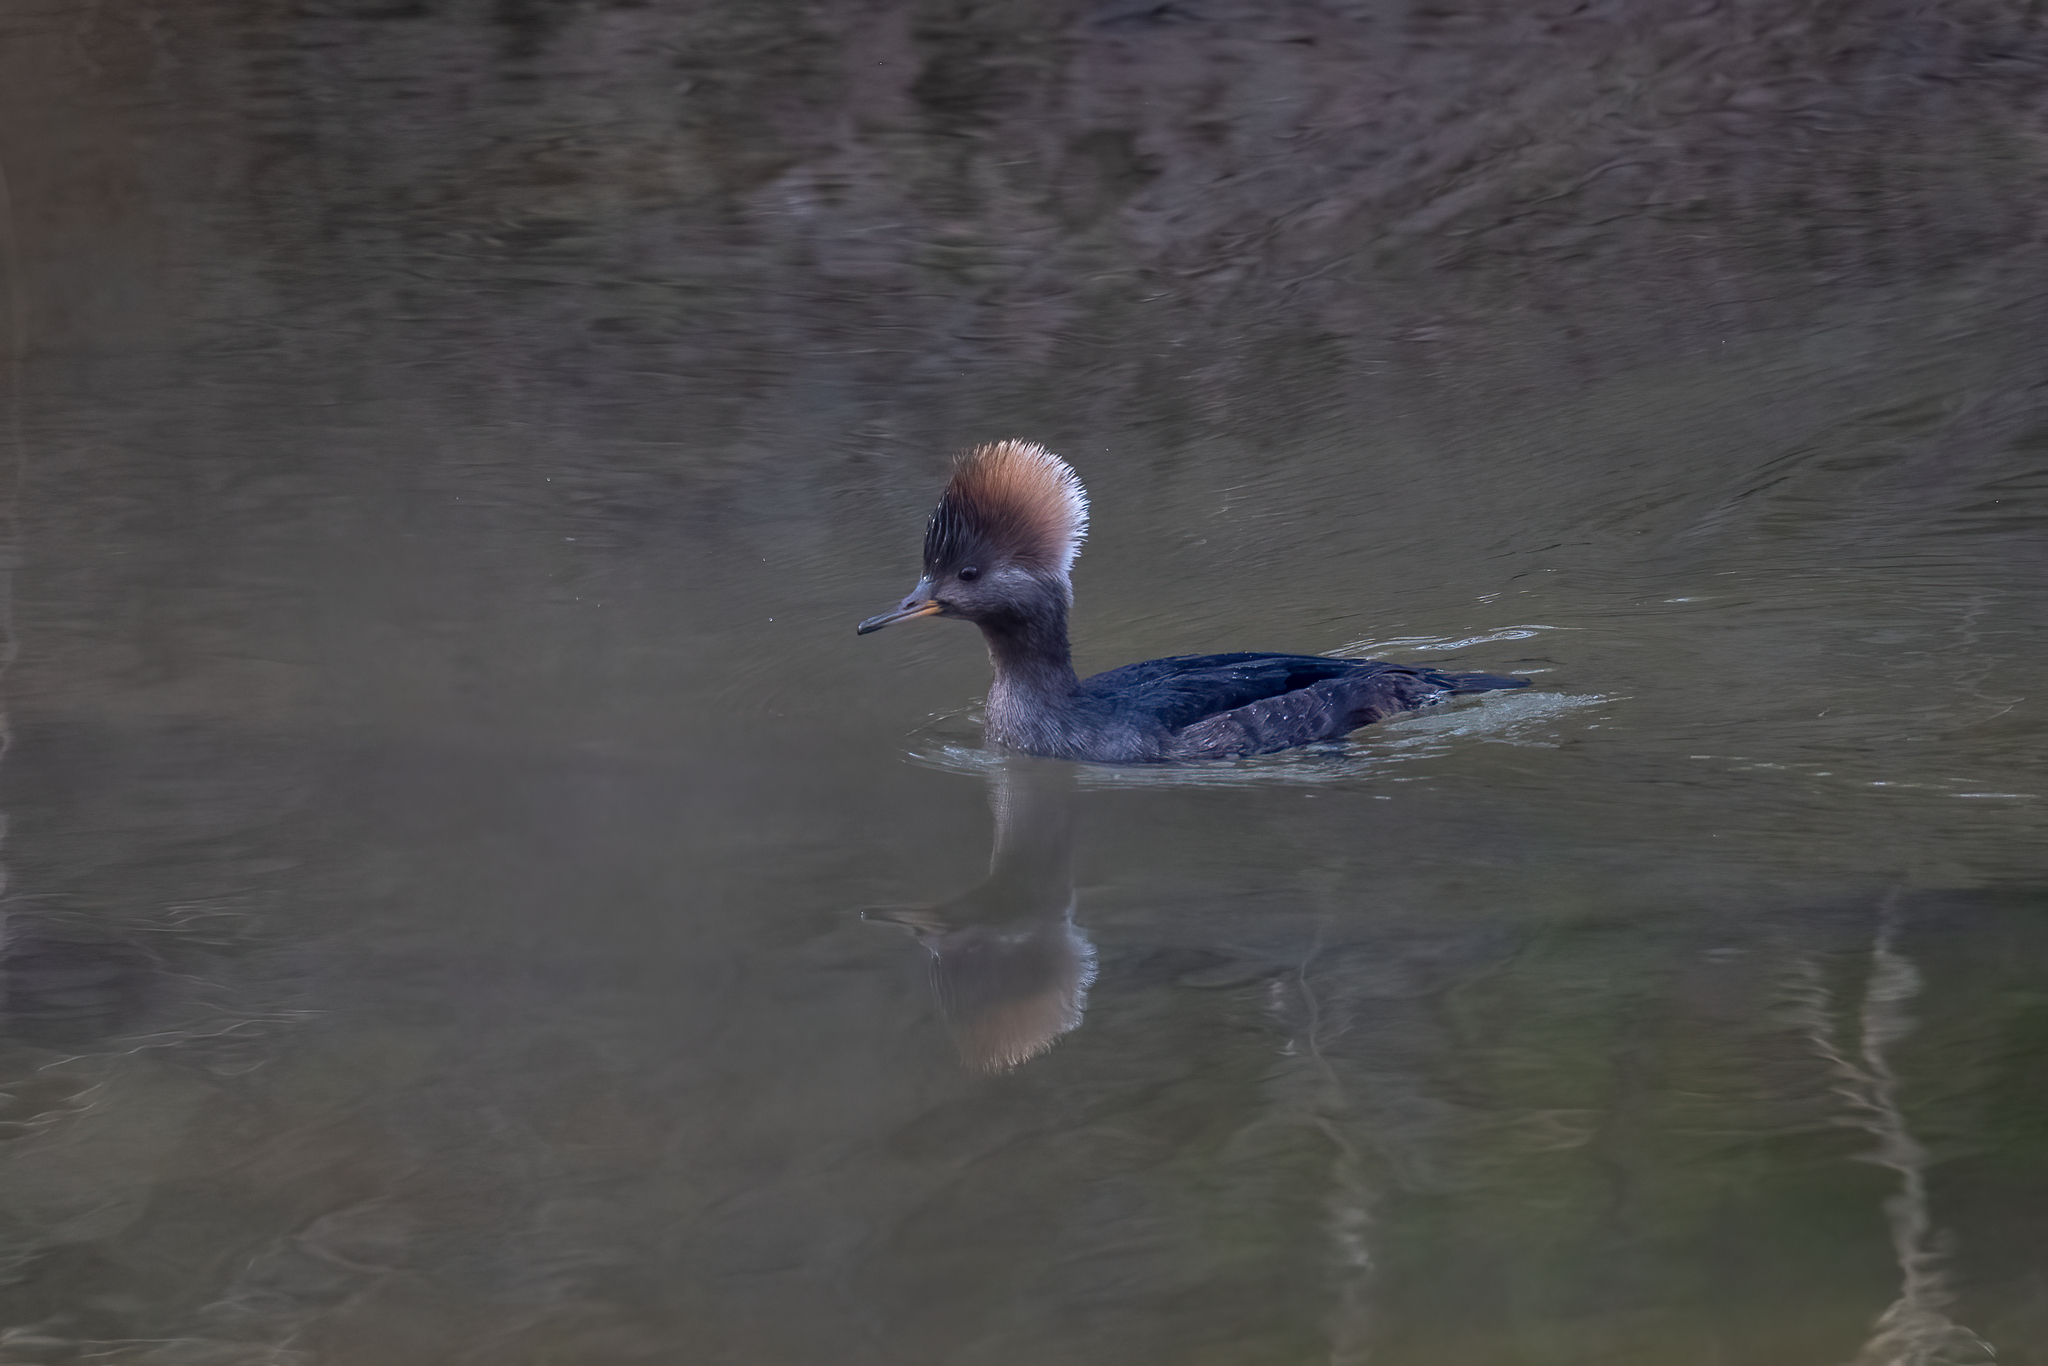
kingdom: Animalia
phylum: Chordata
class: Aves
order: Anseriformes
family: Anatidae
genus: Lophodytes
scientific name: Lophodytes cucullatus
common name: Hooded merganser
